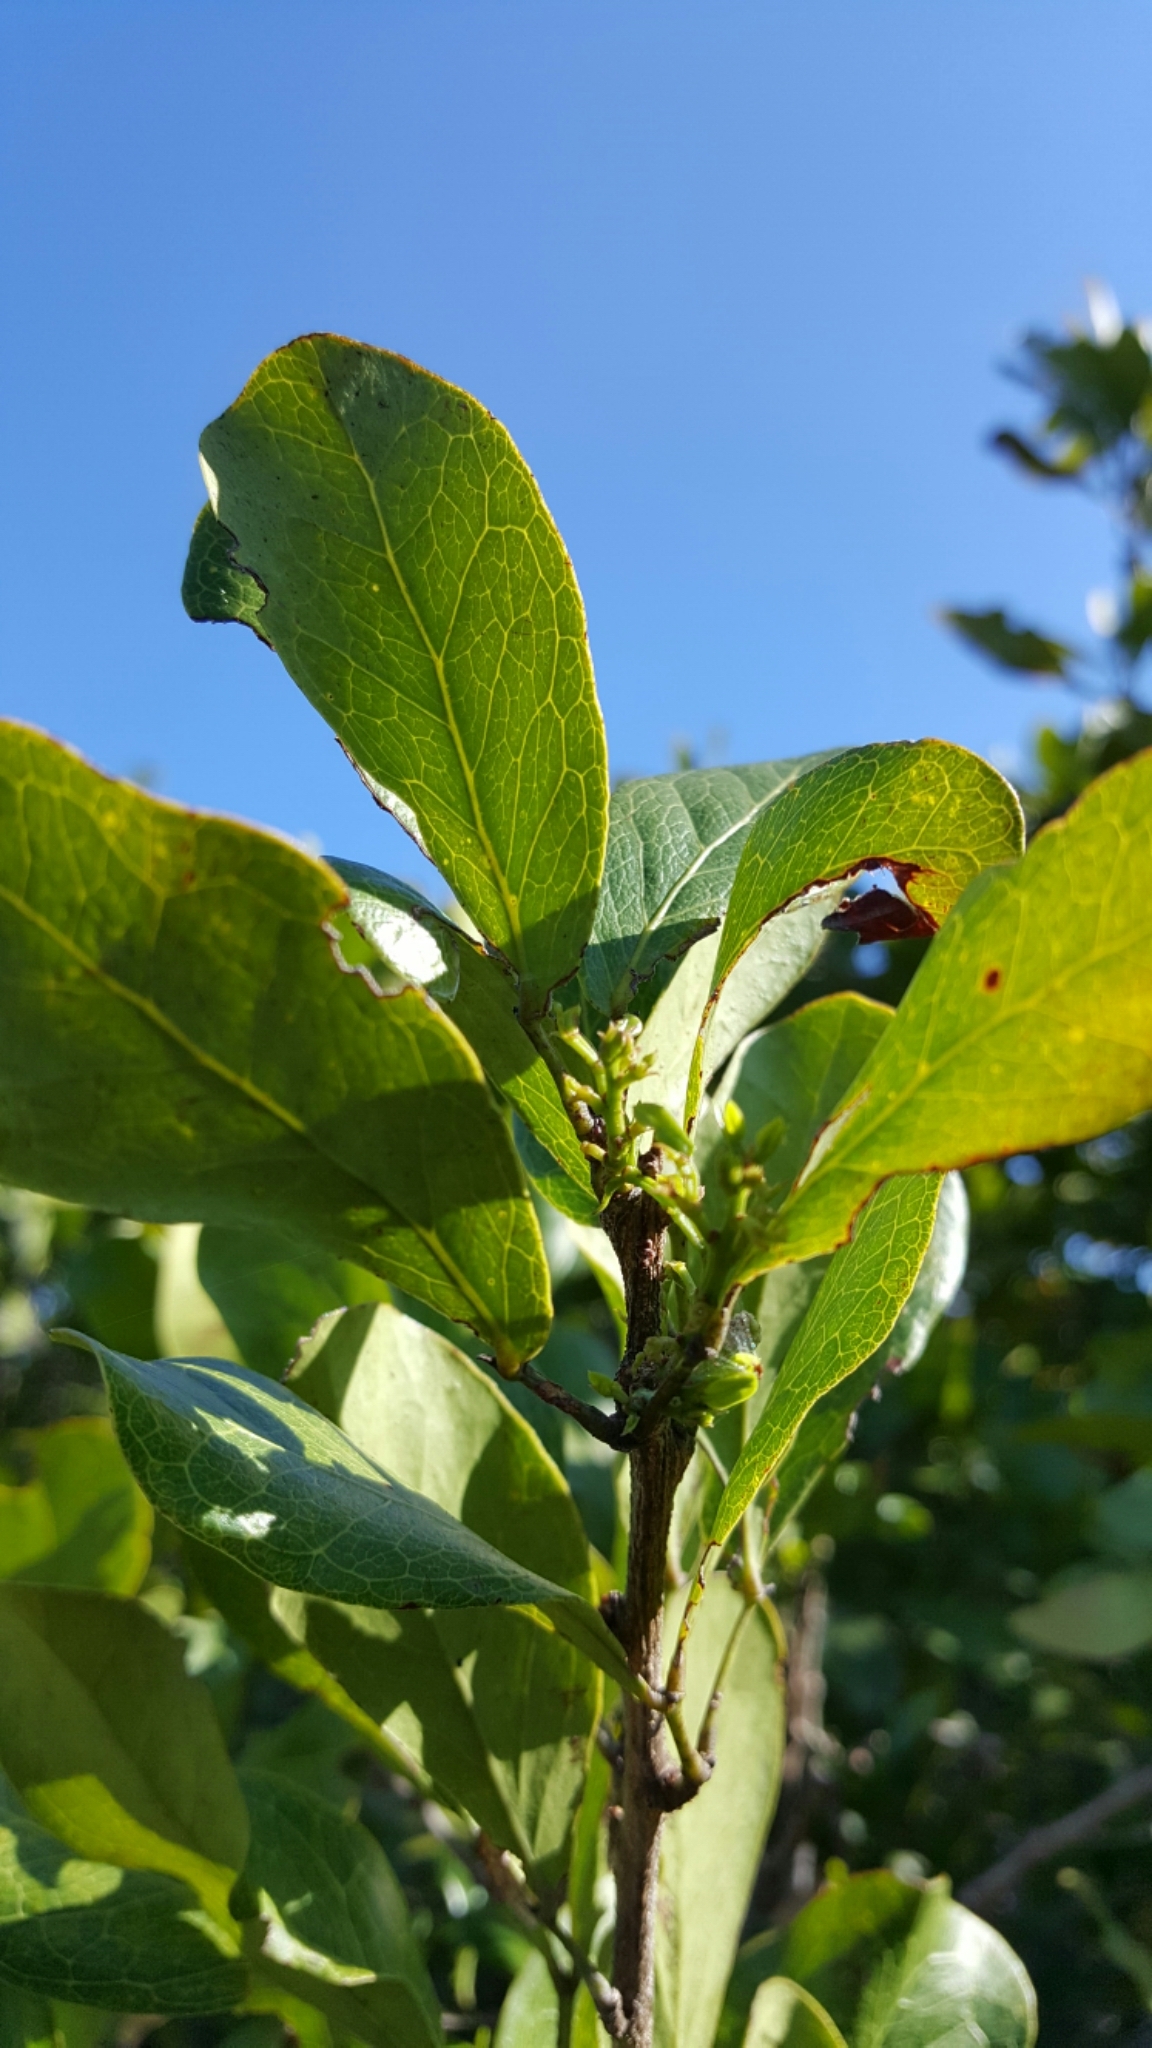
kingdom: Plantae
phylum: Tracheophyta
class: Magnoliopsida
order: Fabales
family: Fabaceae
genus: Pithecellobium
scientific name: Pithecellobium keyense
